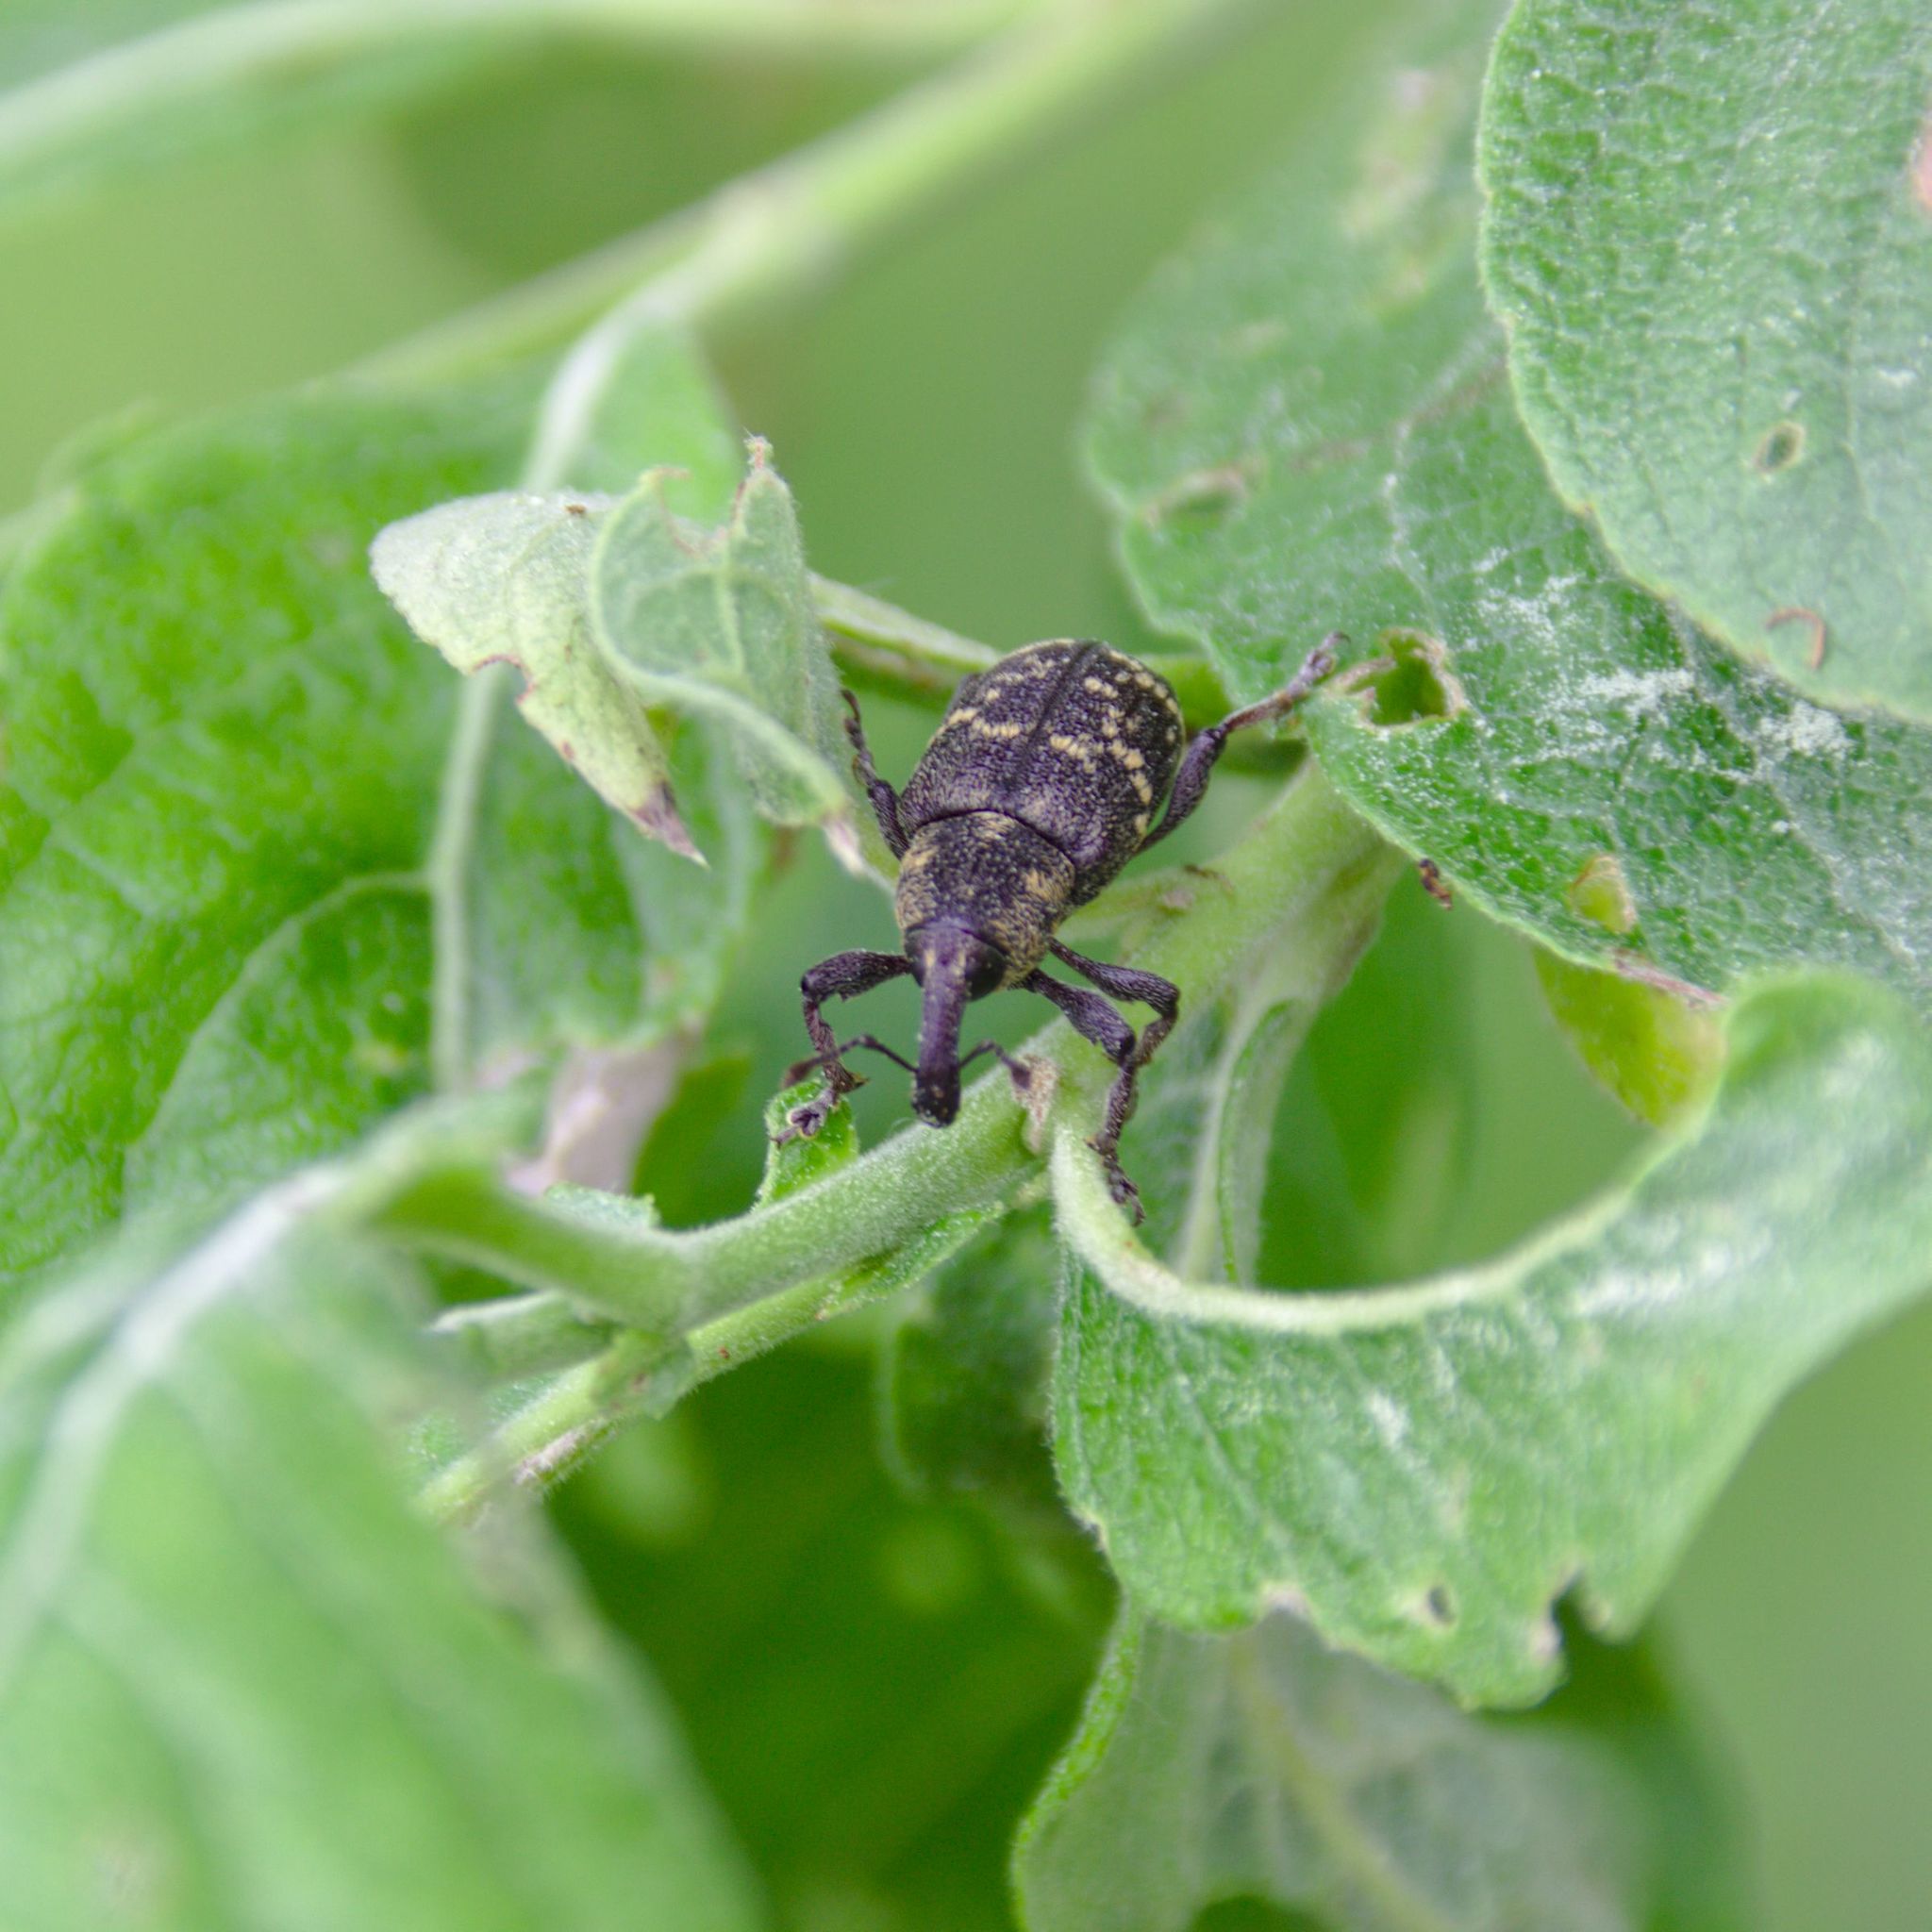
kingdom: Animalia
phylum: Arthropoda
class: Insecta
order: Coleoptera
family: Curculionidae
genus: Hylobius
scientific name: Hylobius abietis
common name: Large pine weevil
